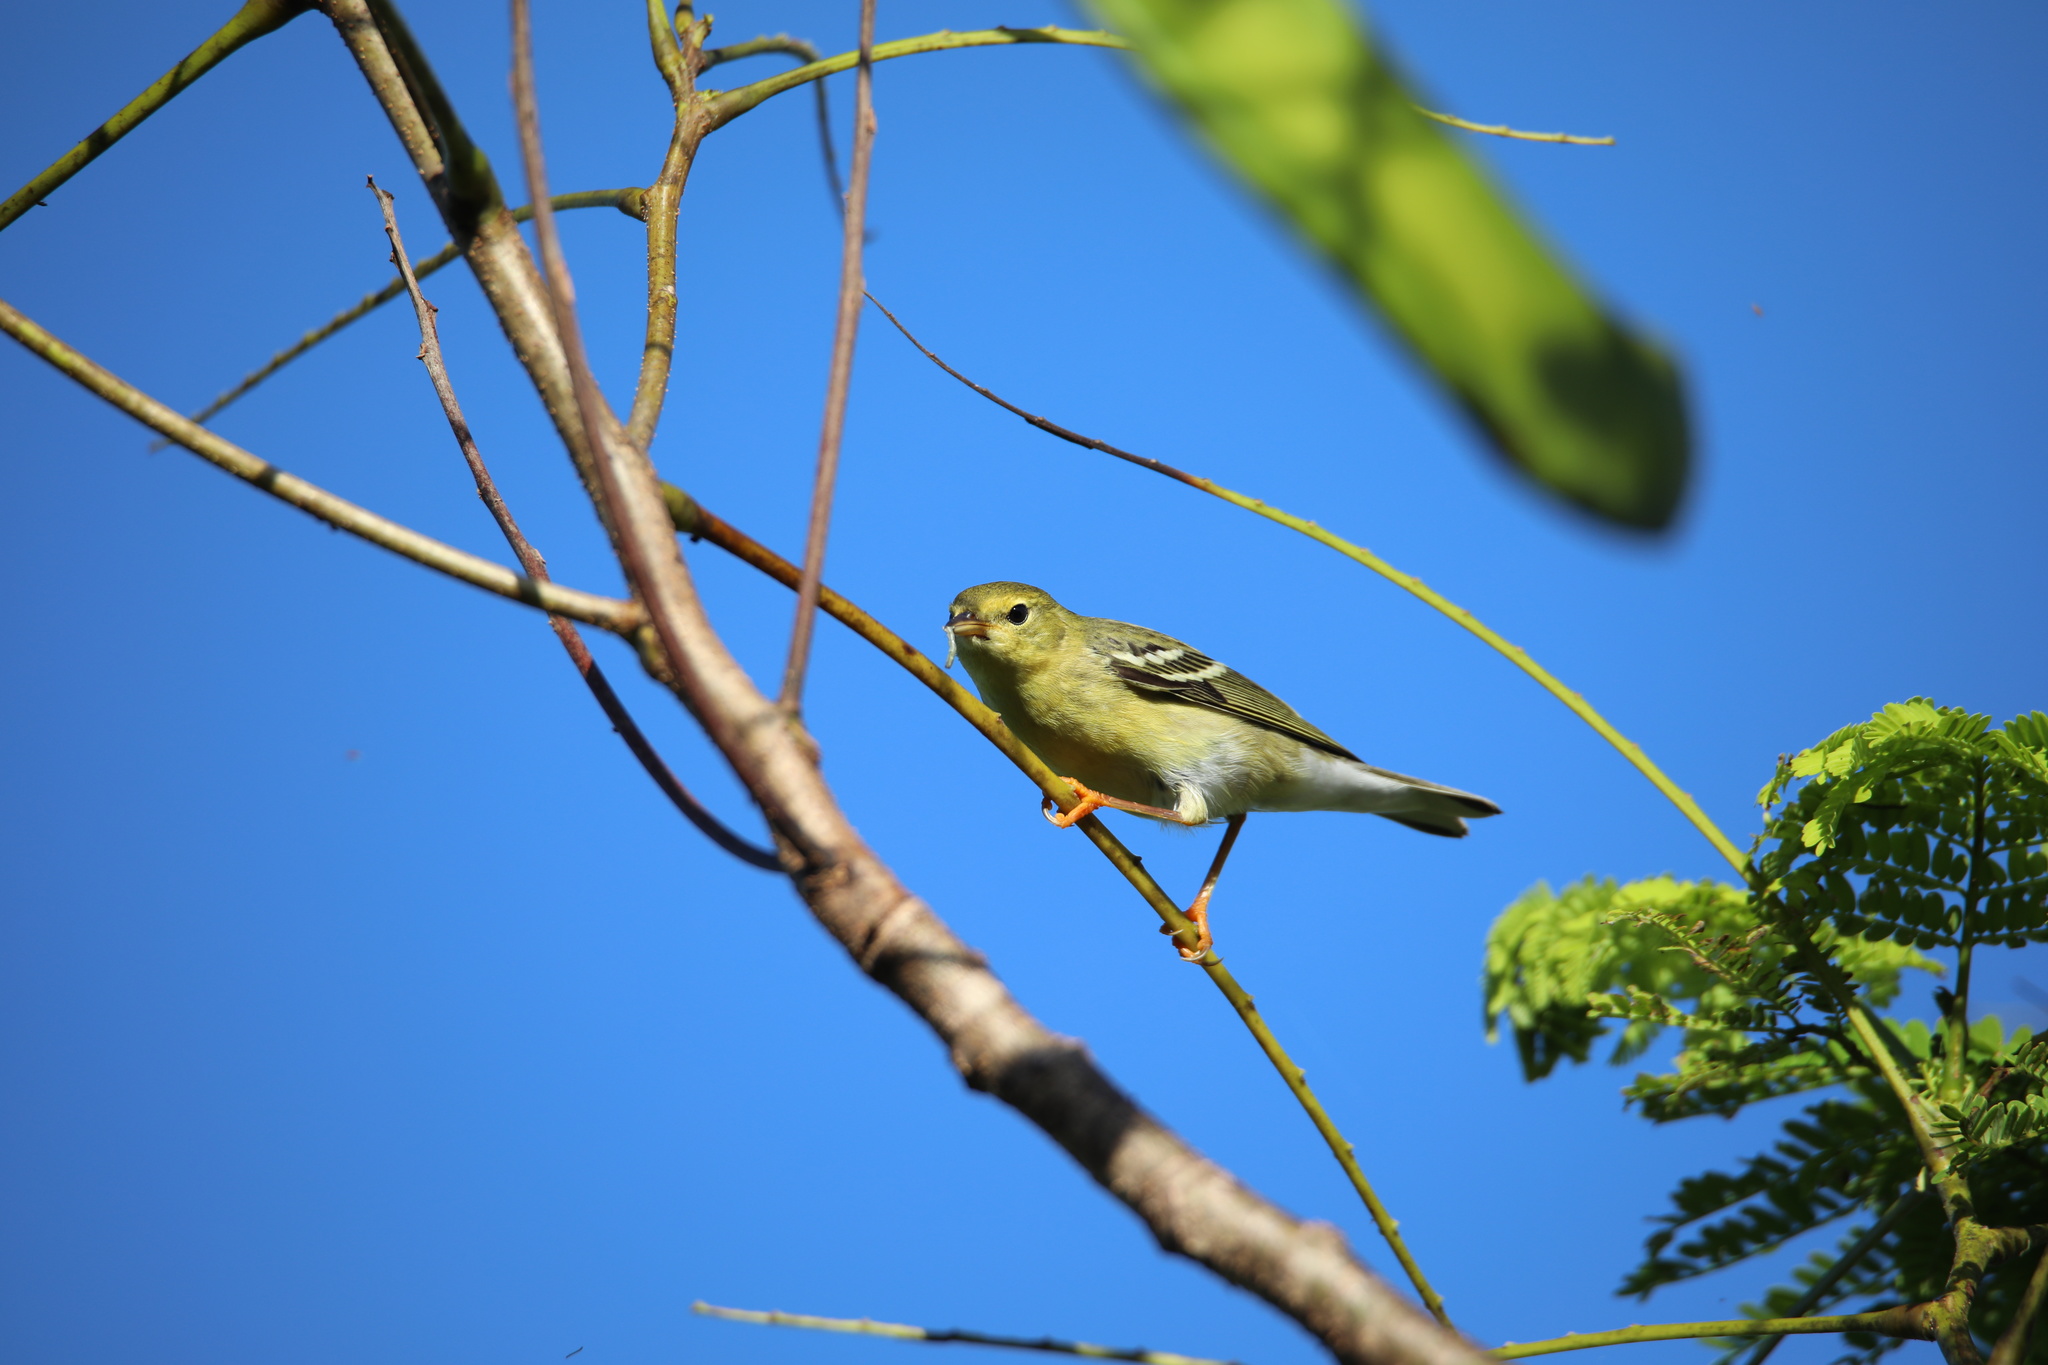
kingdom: Animalia
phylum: Chordata
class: Aves
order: Passeriformes
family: Parulidae
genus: Setophaga
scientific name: Setophaga striata
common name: Blackpoll warbler
